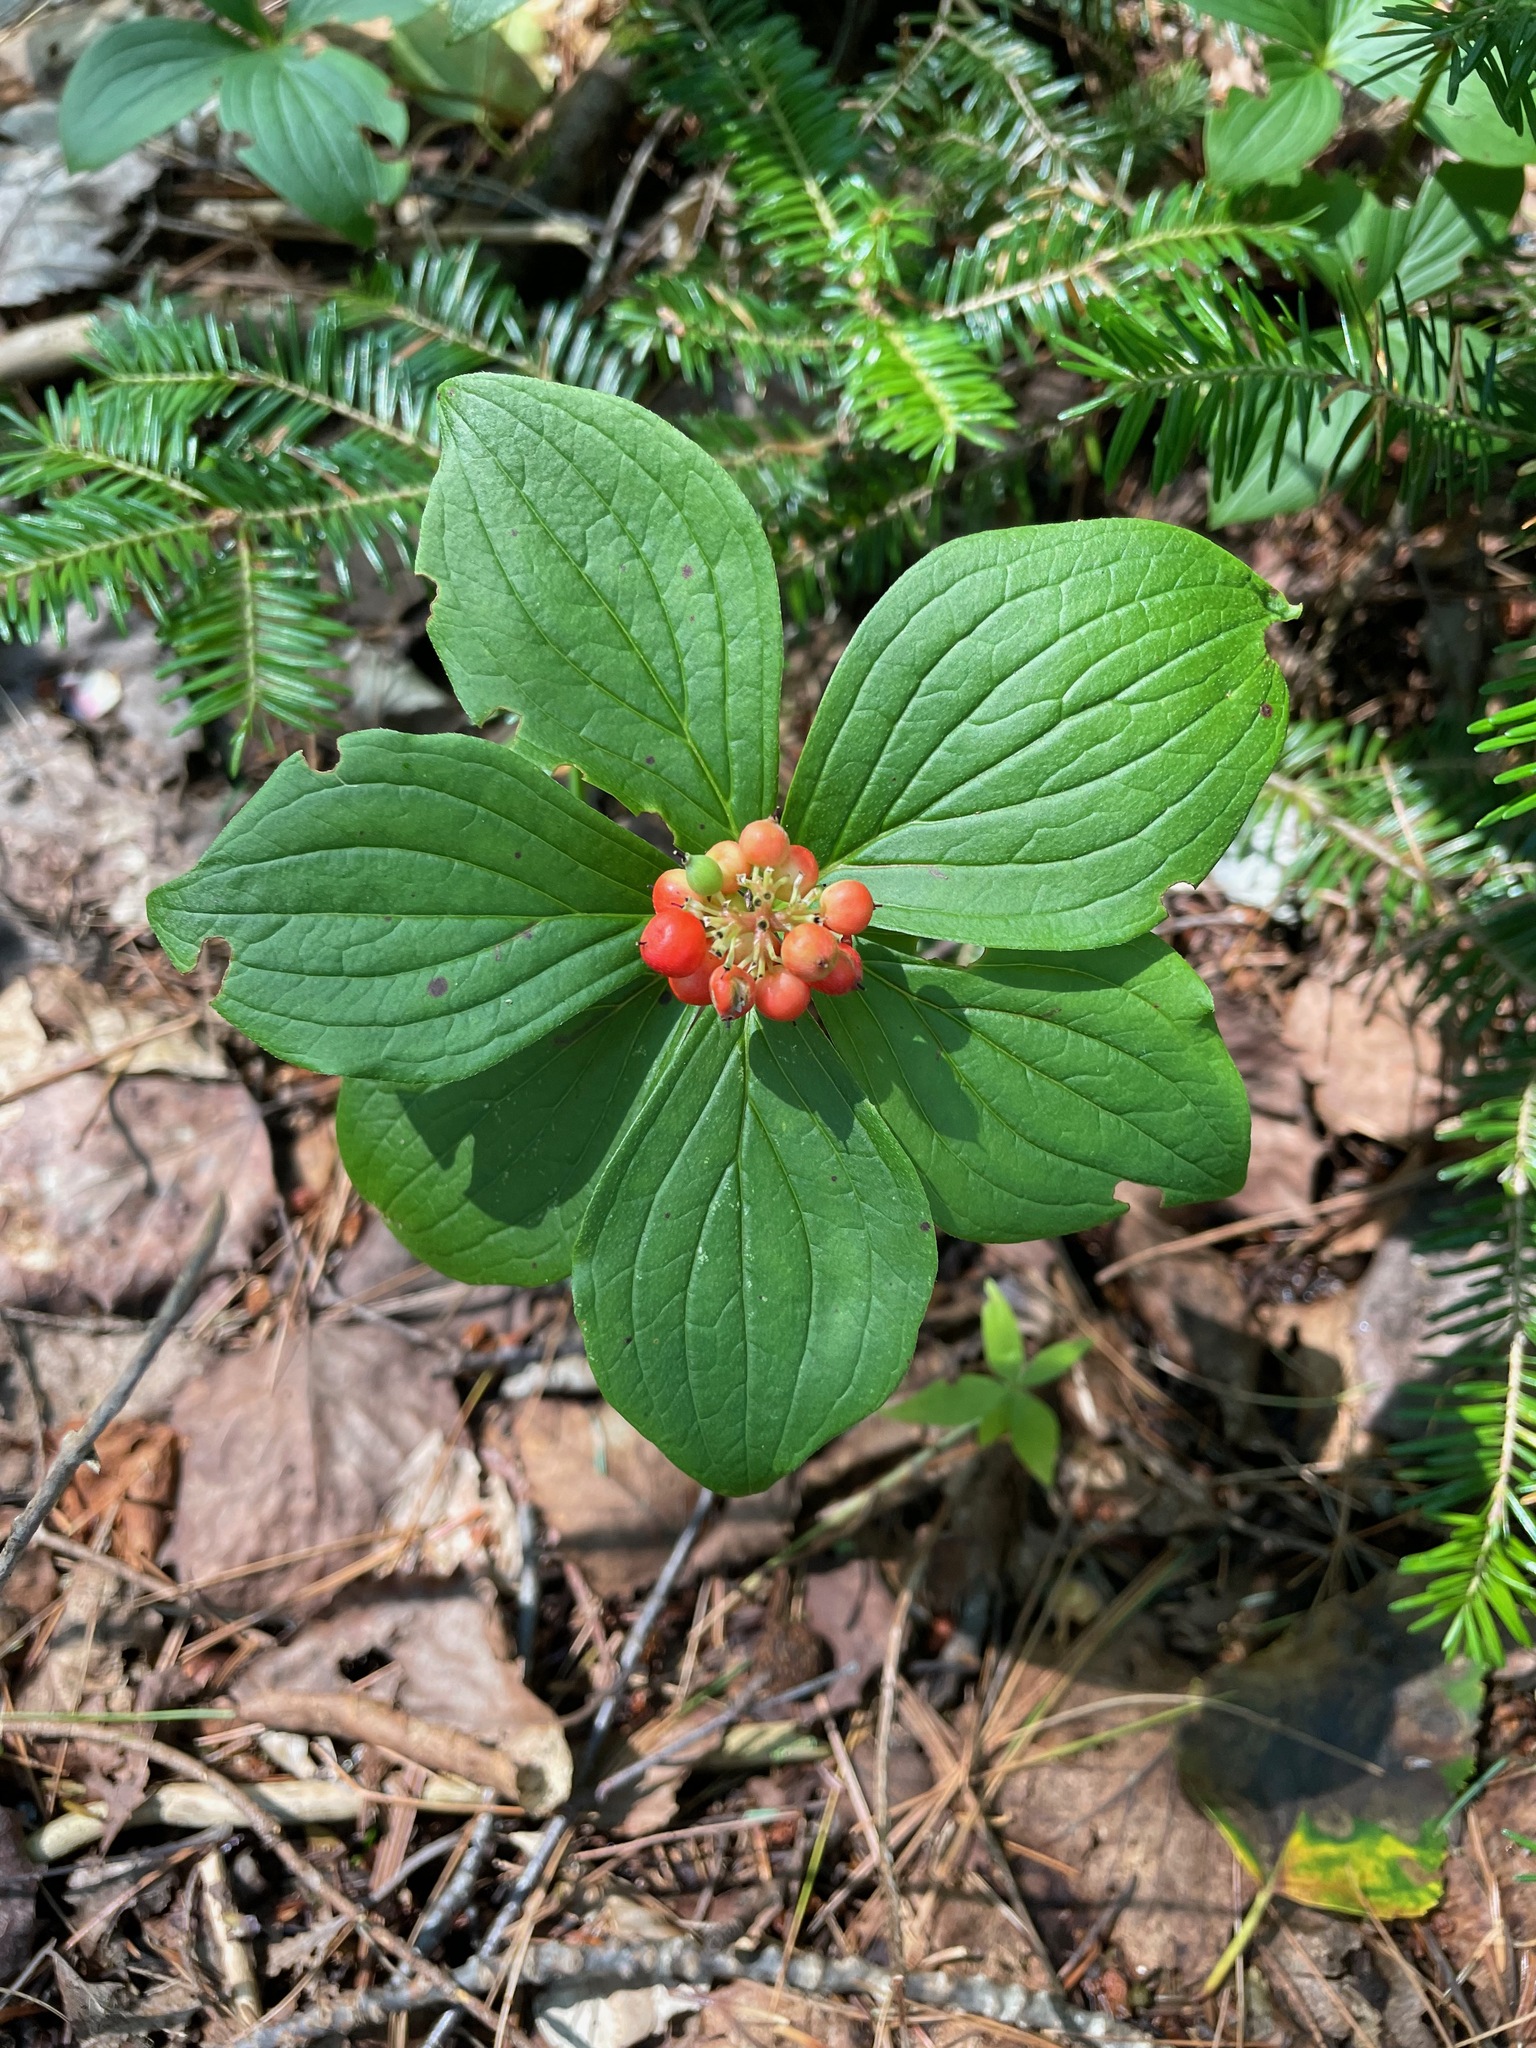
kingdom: Plantae
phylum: Tracheophyta
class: Magnoliopsida
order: Cornales
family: Cornaceae
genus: Cornus
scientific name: Cornus canadensis
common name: Creeping dogwood
